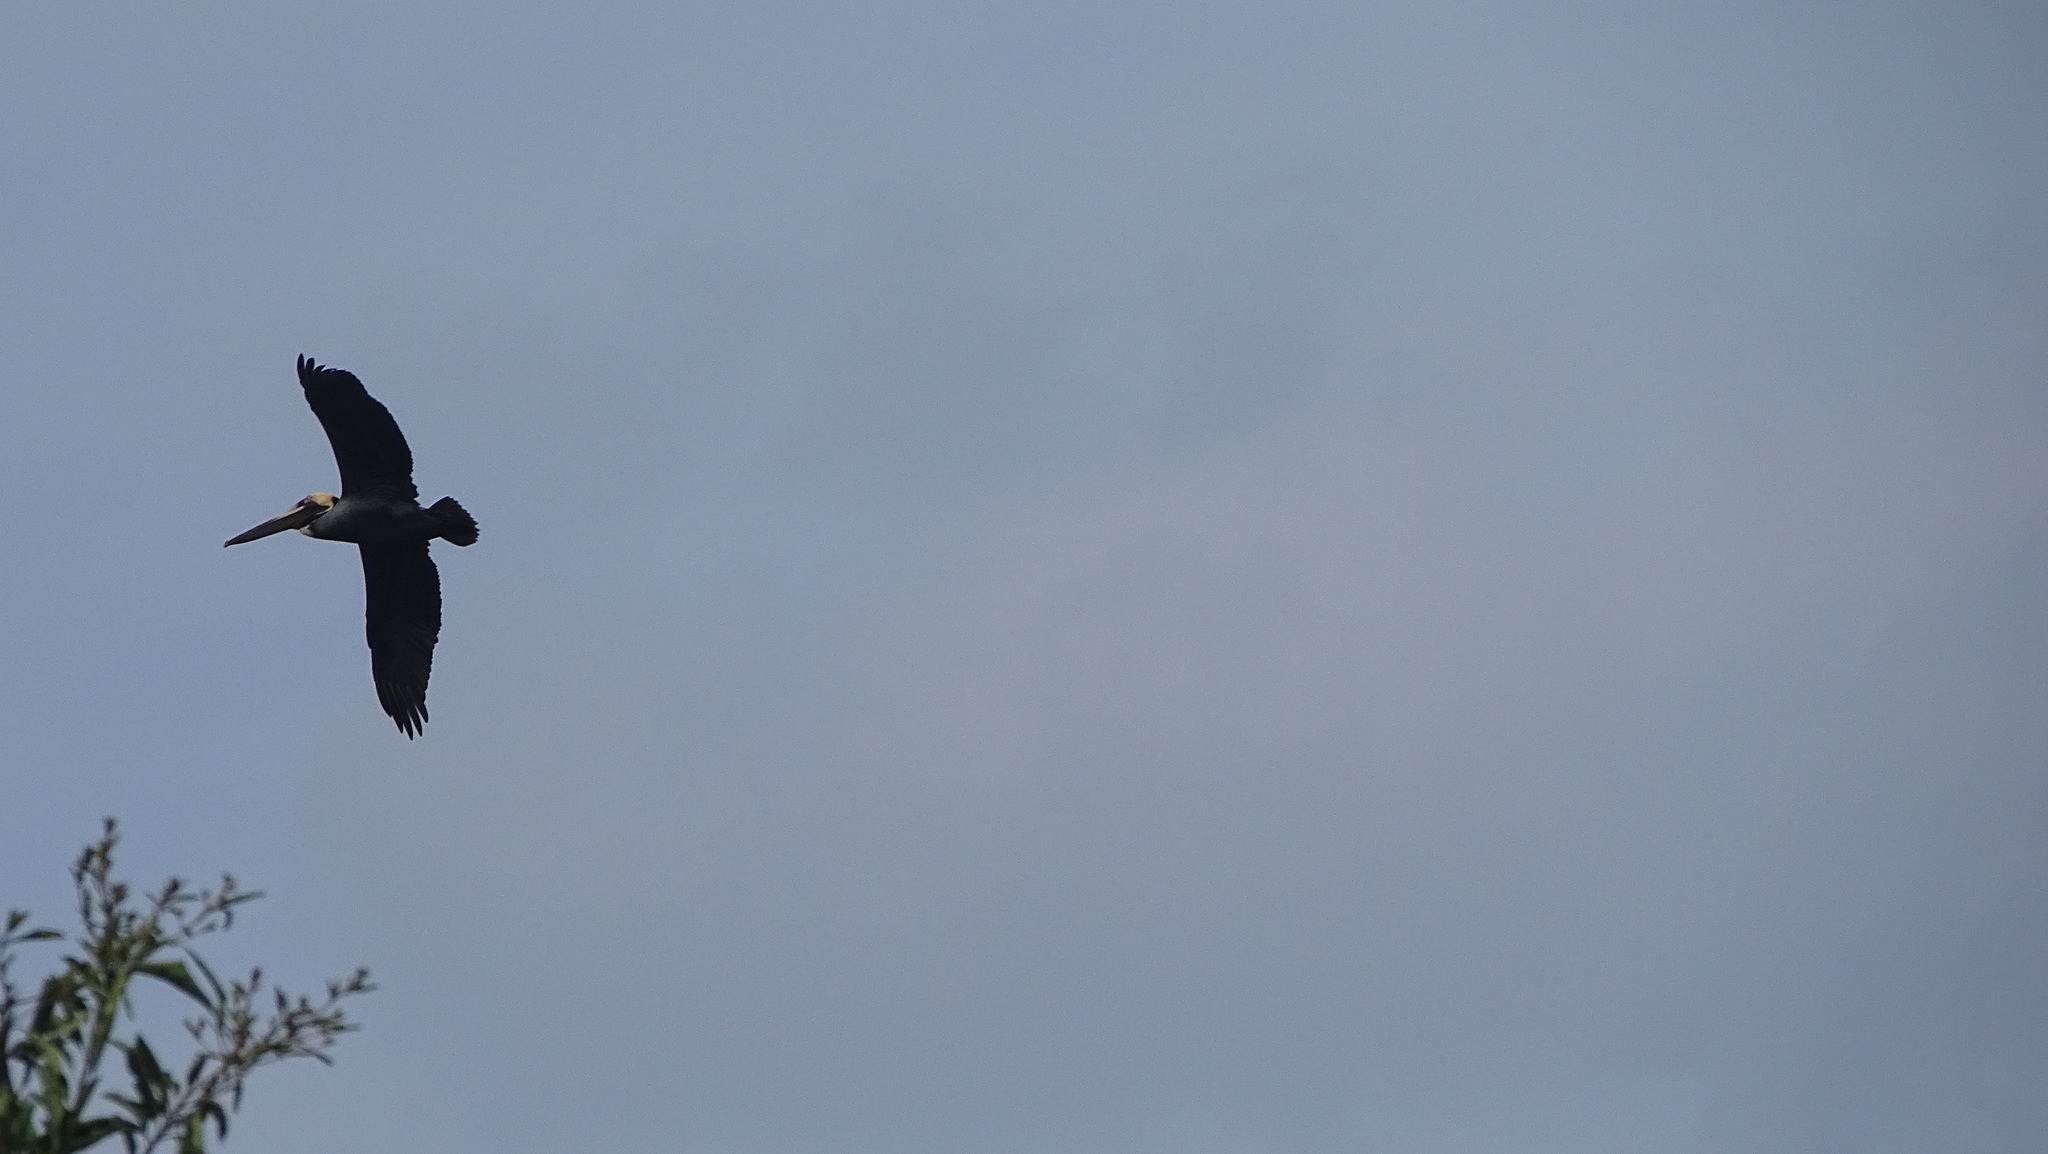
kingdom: Animalia
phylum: Chordata
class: Aves
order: Pelecaniformes
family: Pelecanidae
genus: Pelecanus
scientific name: Pelecanus occidentalis
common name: Brown pelican
